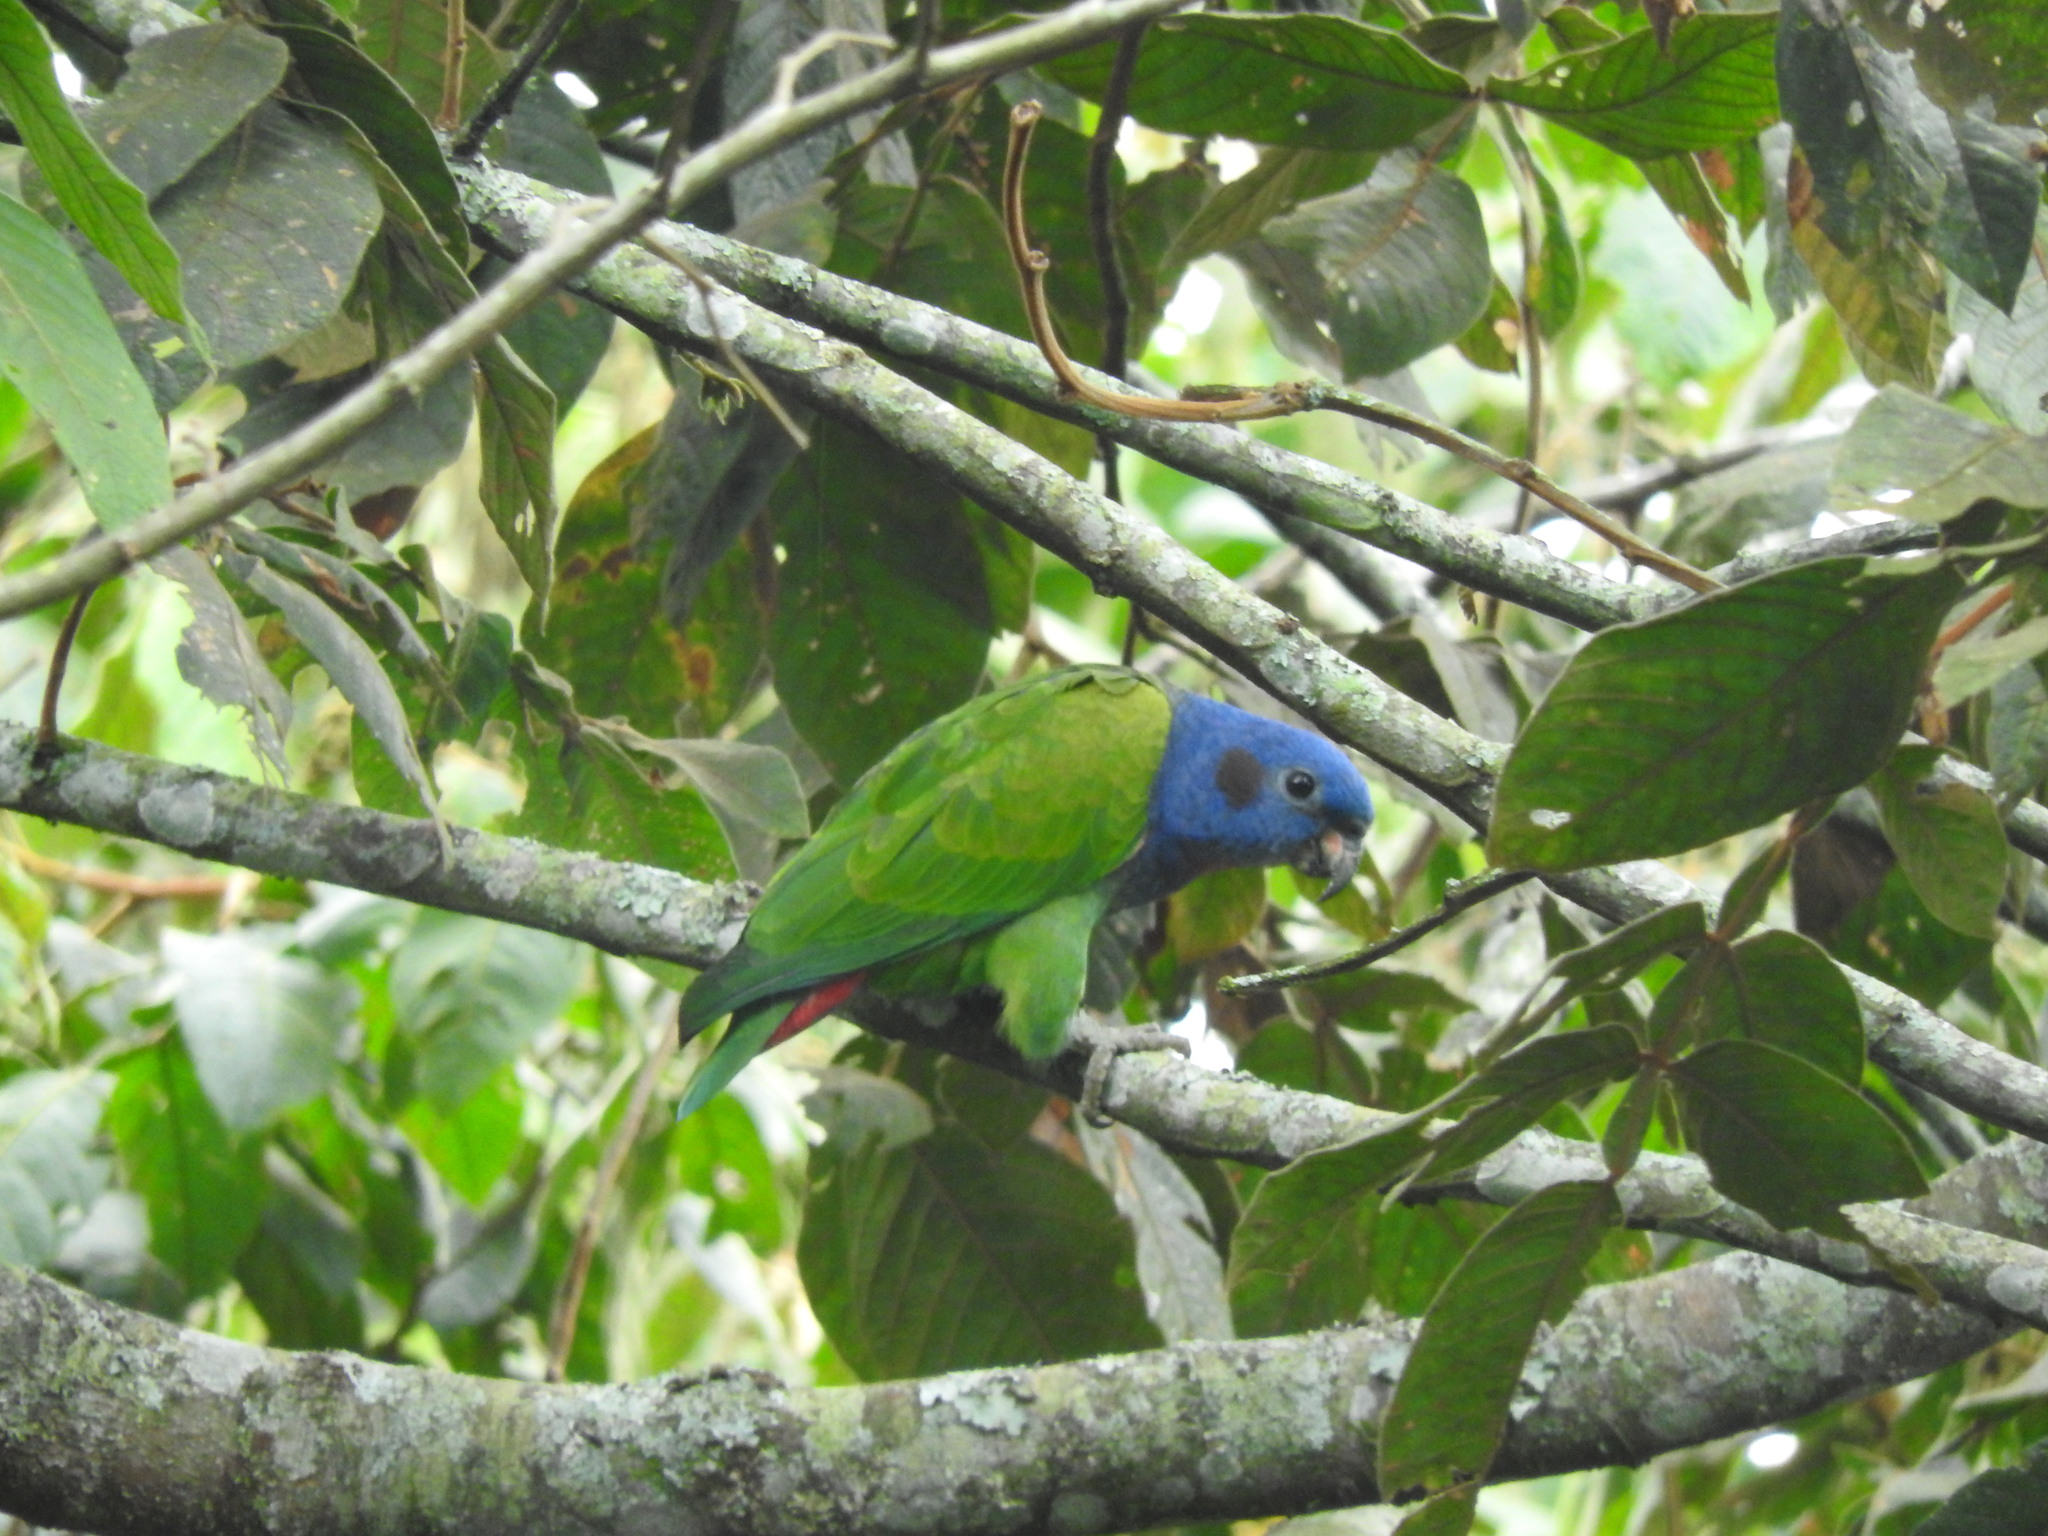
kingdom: Animalia
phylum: Chordata
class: Aves
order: Psittaciformes
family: Psittacidae
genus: Pionus
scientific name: Pionus menstruus
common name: Blue-headed parrot
